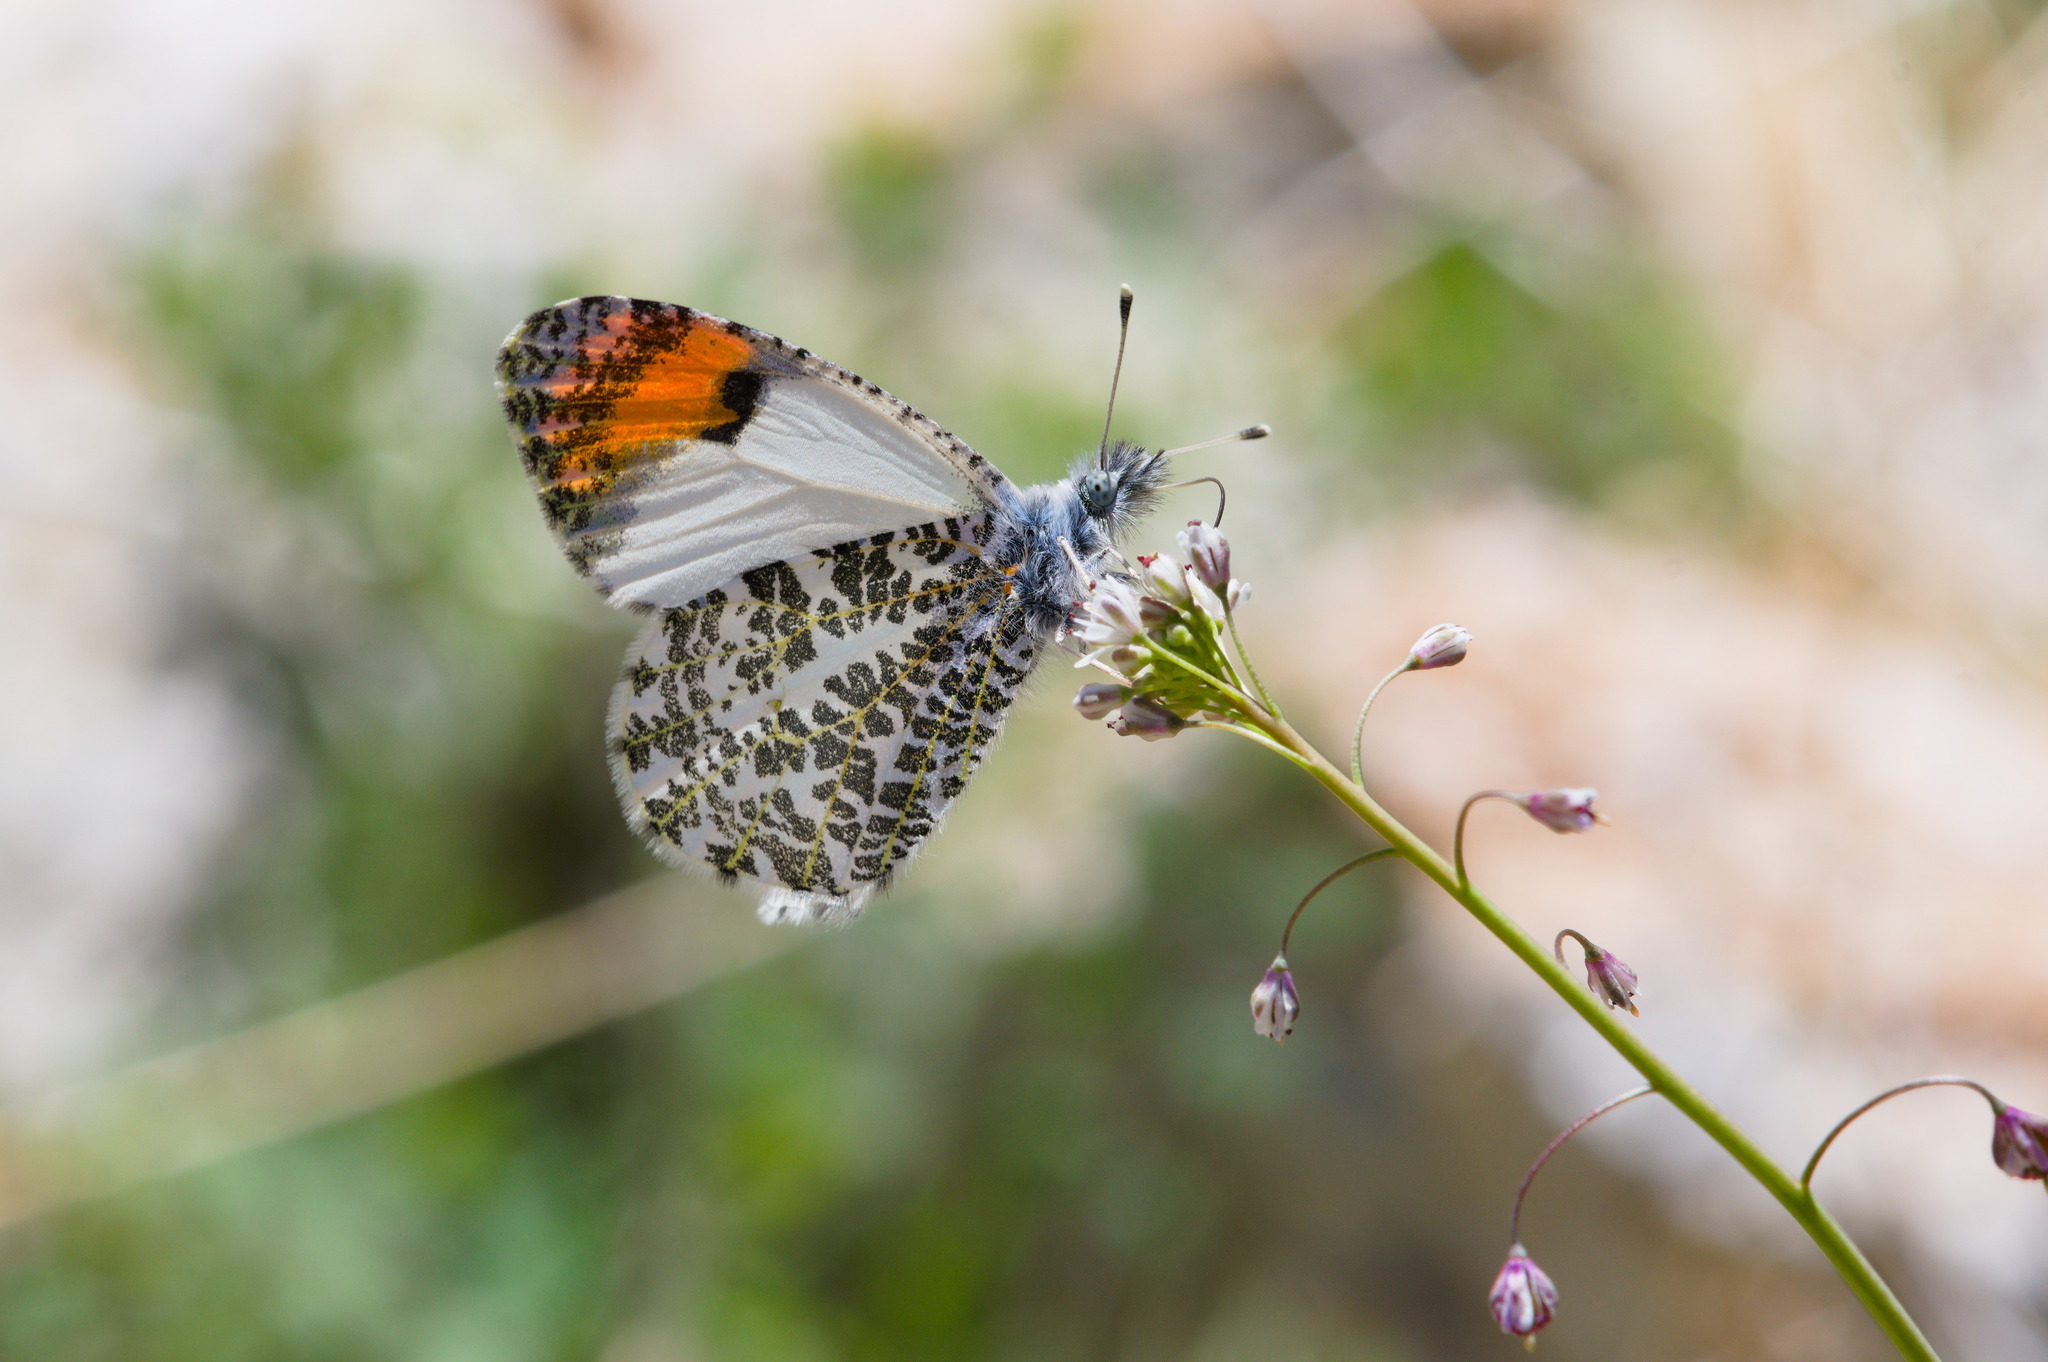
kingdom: Animalia
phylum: Arthropoda
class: Insecta
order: Lepidoptera
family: Pieridae
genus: Anthocharis
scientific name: Anthocharis thoosa
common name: Southwestern orangetip
